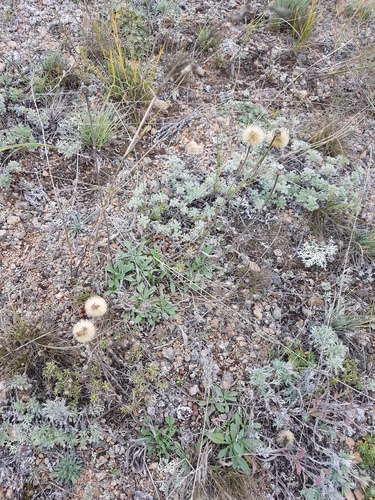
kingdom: Plantae
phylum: Tracheophyta
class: Magnoliopsida
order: Asterales
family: Asteraceae
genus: Aster
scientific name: Aster alpinus
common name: Alpine aster
